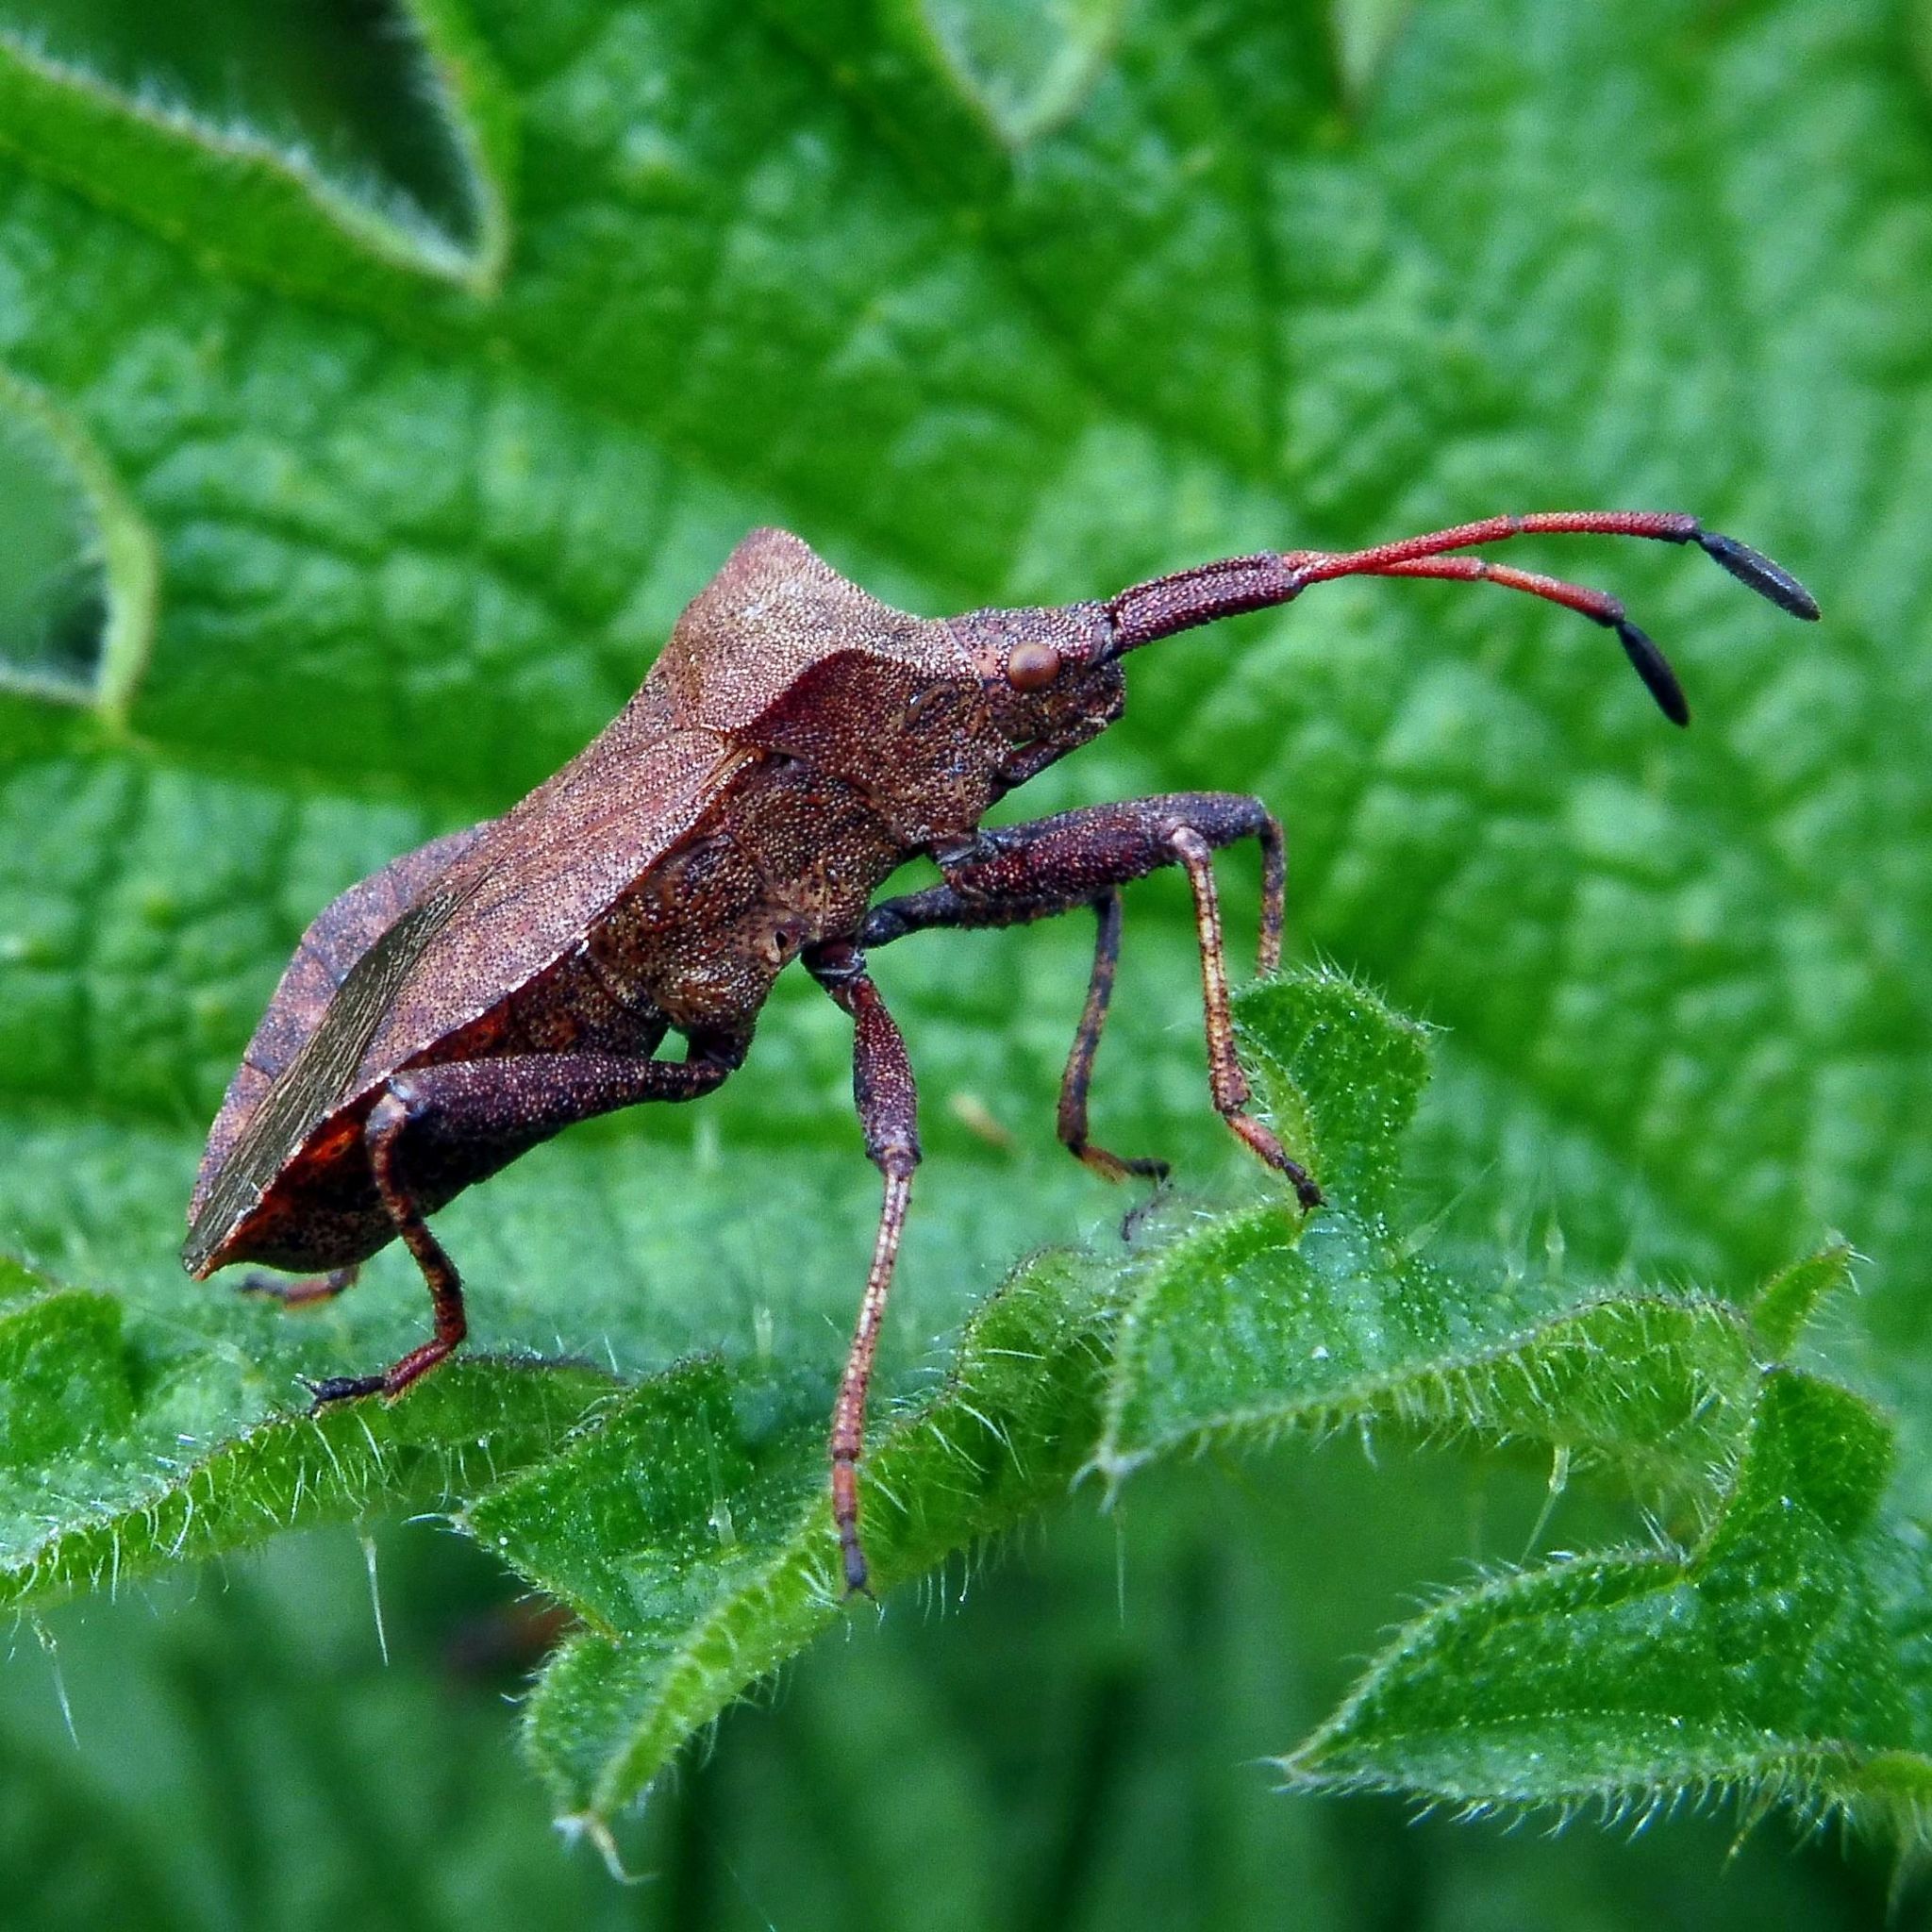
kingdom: Animalia
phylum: Arthropoda
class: Insecta
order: Hemiptera
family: Coreidae
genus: Coreus
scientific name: Coreus marginatus
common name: Dock bug
